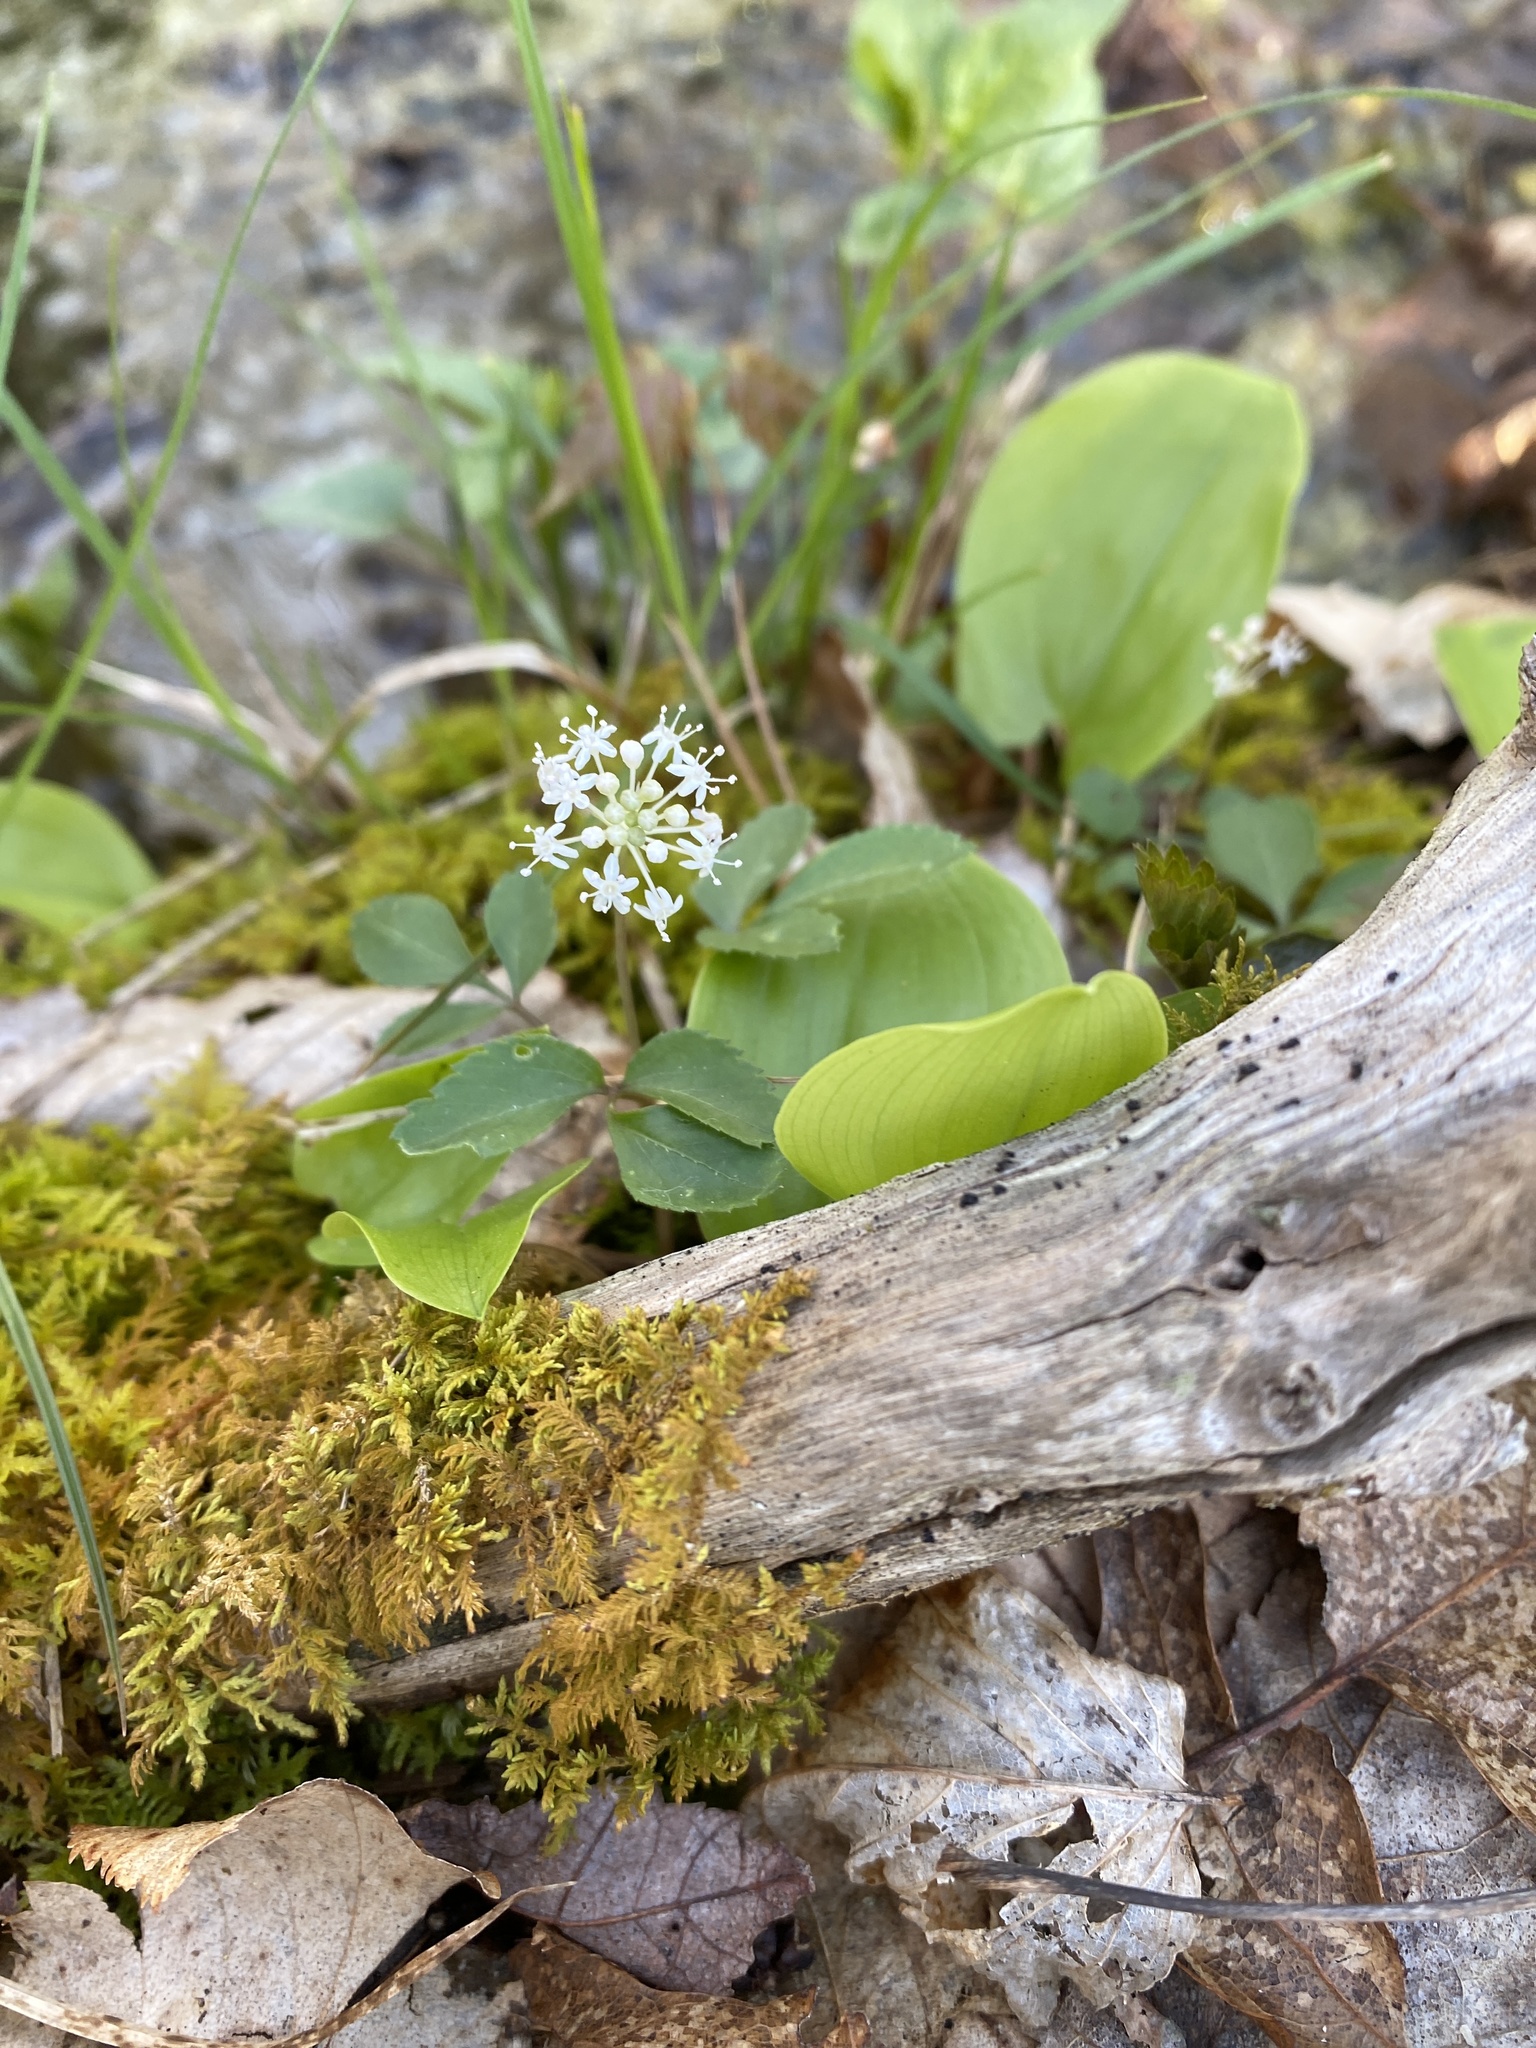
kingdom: Plantae
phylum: Tracheophyta
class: Magnoliopsida
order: Apiales
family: Araliaceae
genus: Panax
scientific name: Panax trifolius
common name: Dwarf ginseng
